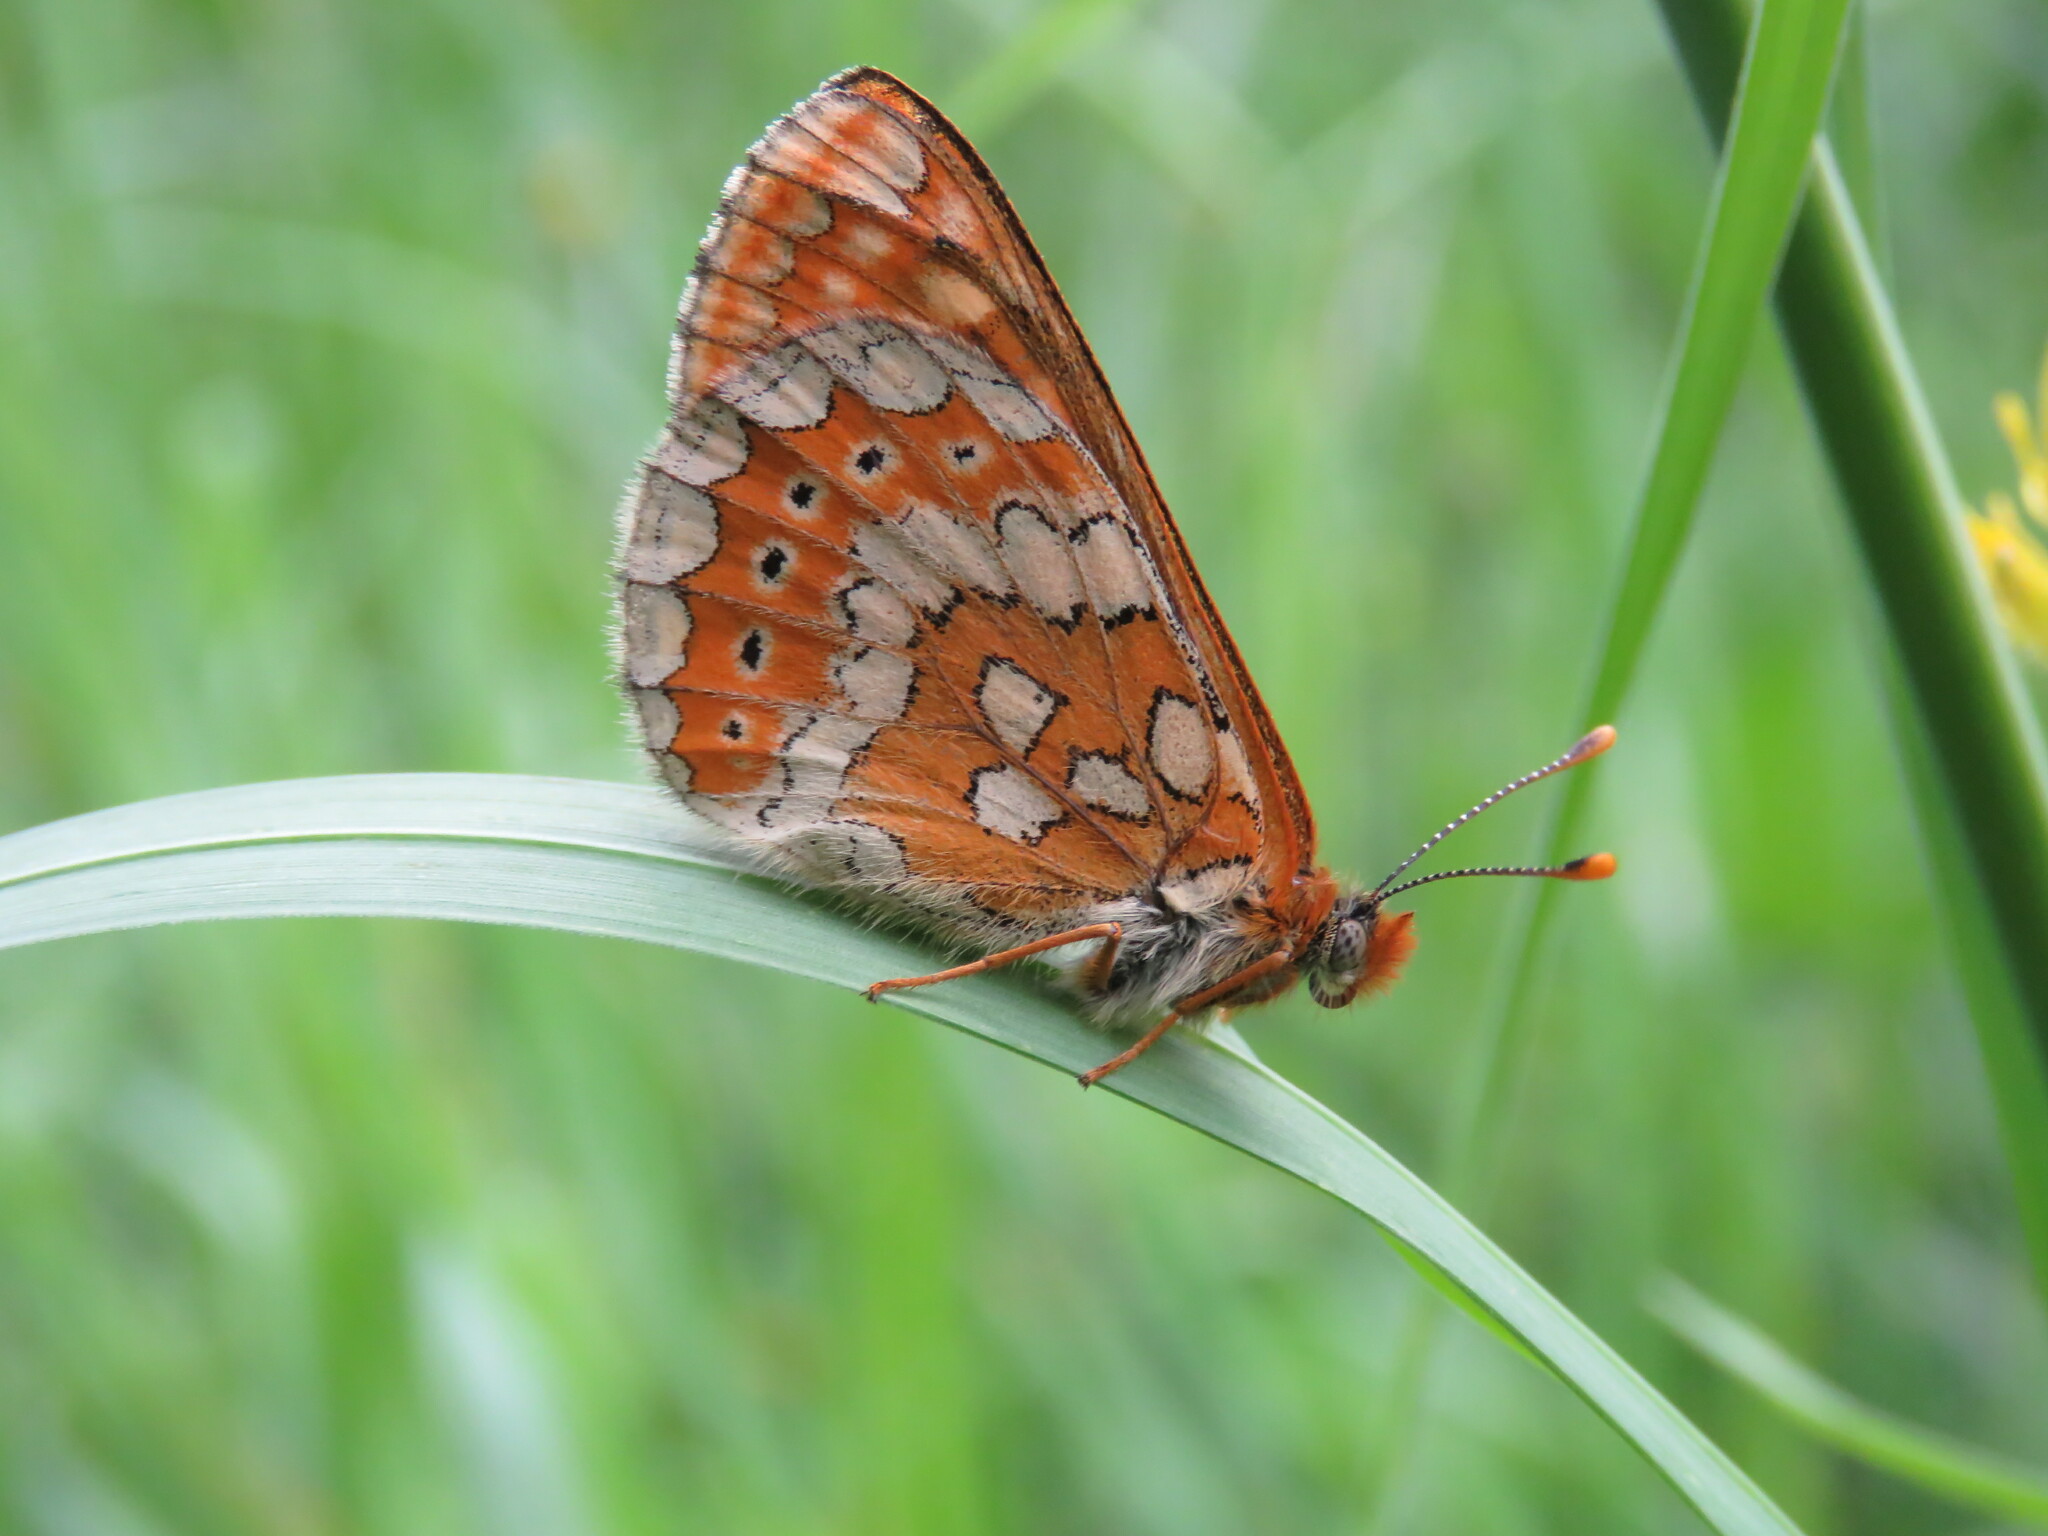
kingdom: Animalia
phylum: Arthropoda
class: Insecta
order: Lepidoptera
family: Nymphalidae
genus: Euphydryas
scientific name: Euphydryas beckeri
